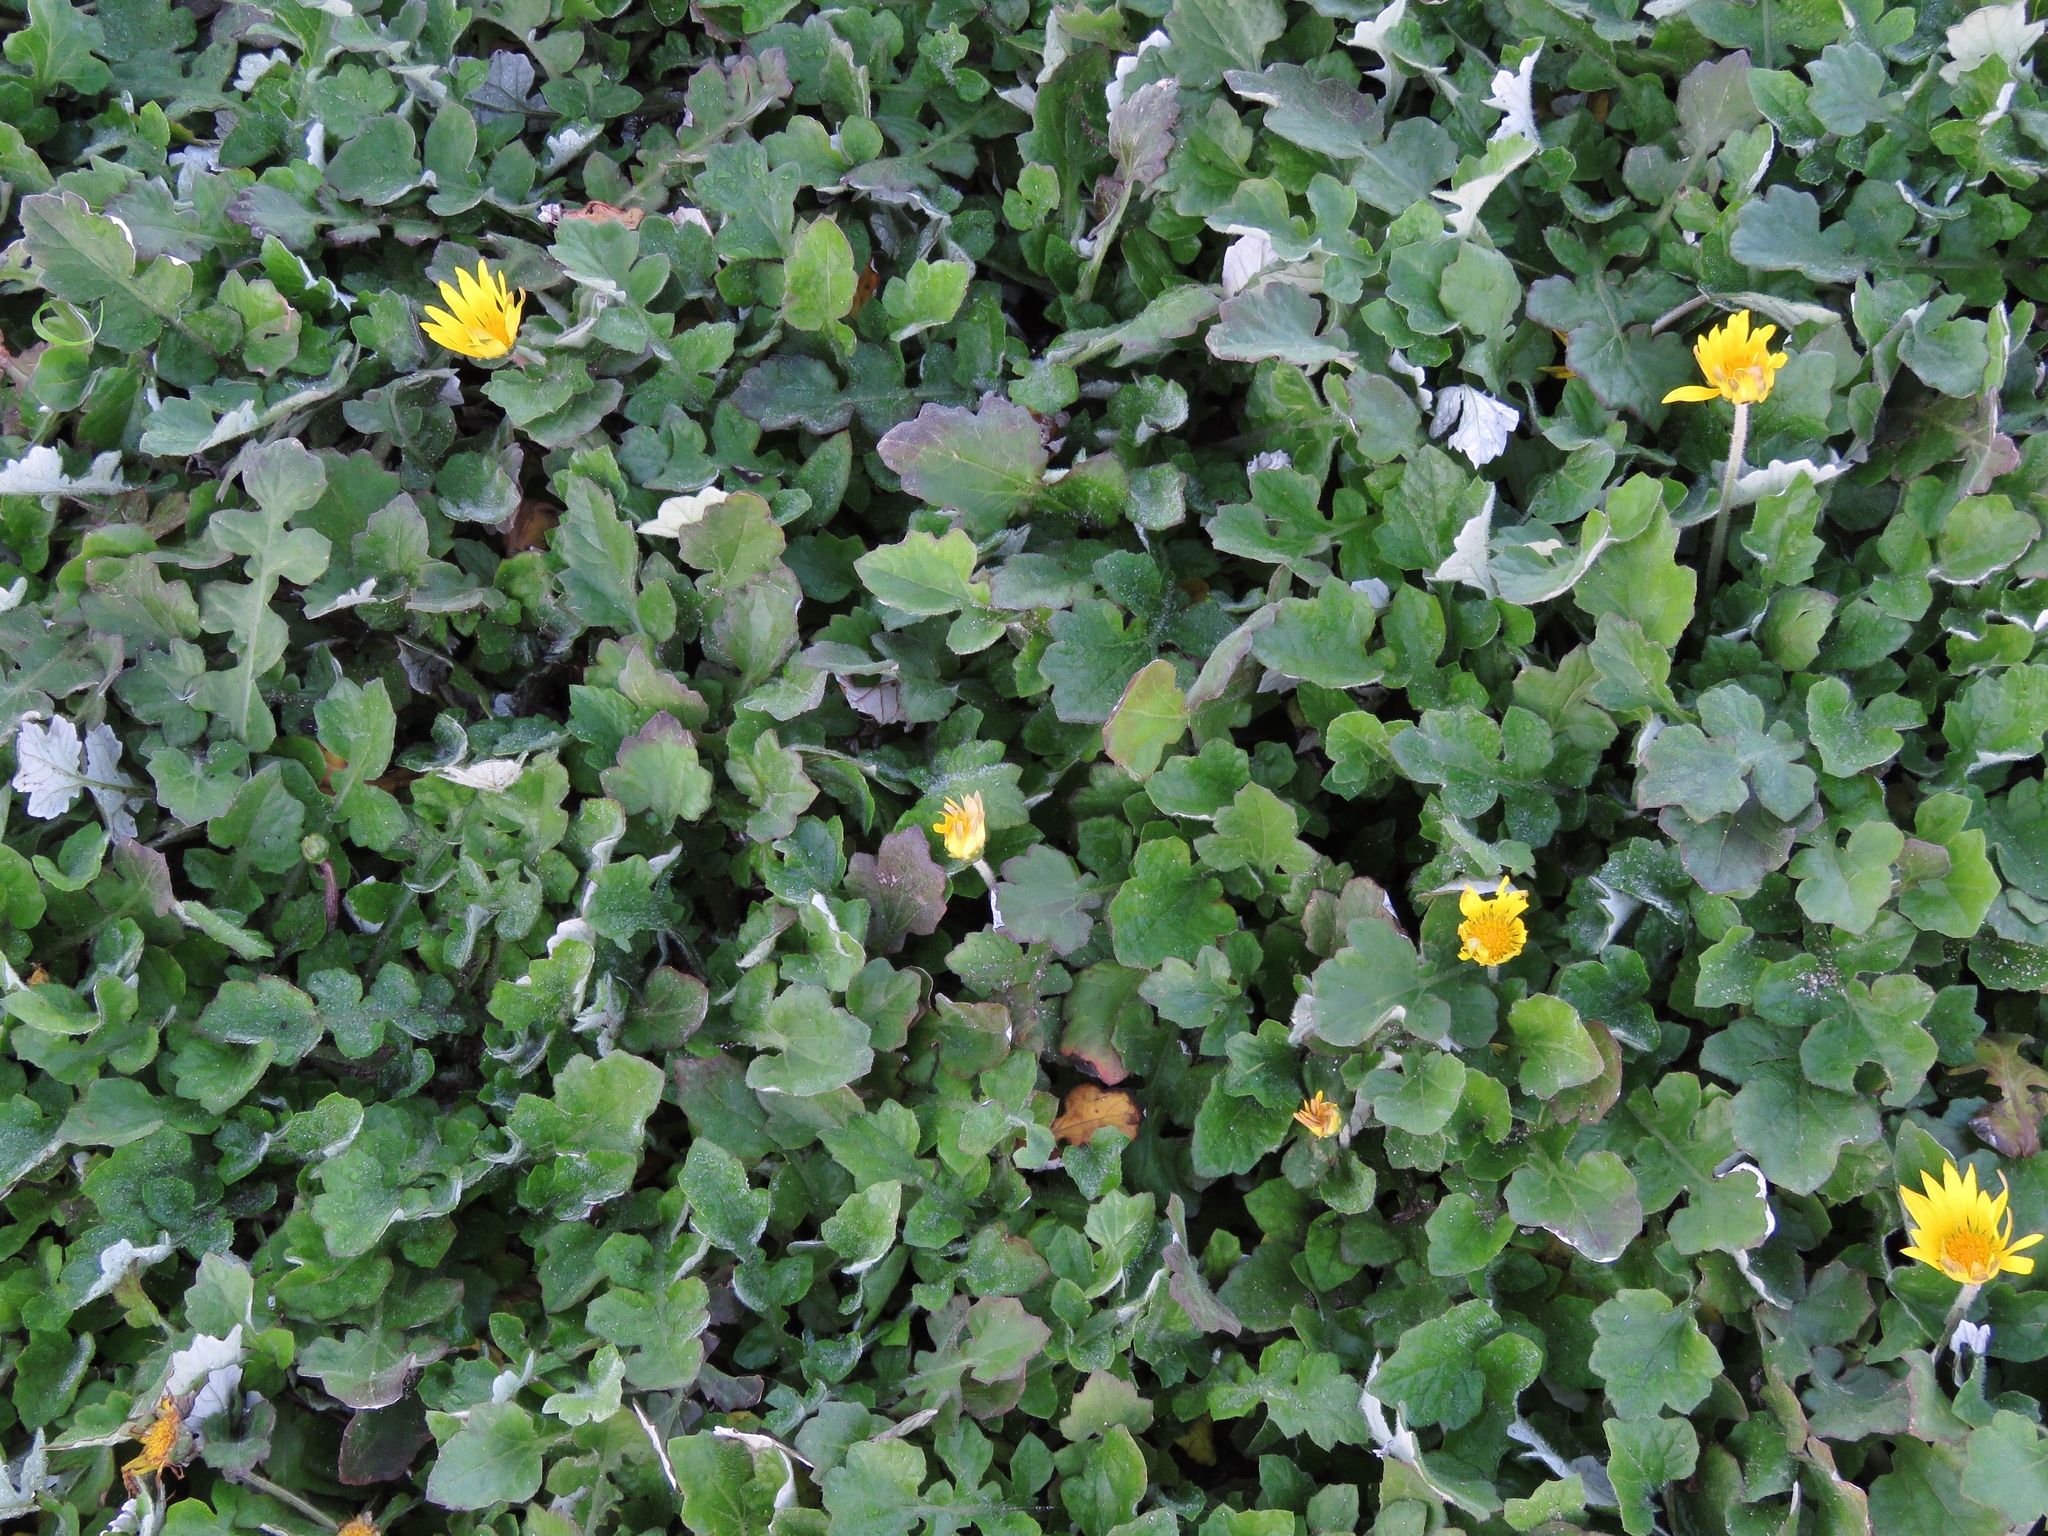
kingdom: Plantae
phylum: Tracheophyta
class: Magnoliopsida
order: Asterales
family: Asteraceae
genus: Arctotheca
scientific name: Arctotheca prostrata
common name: Capeweed
